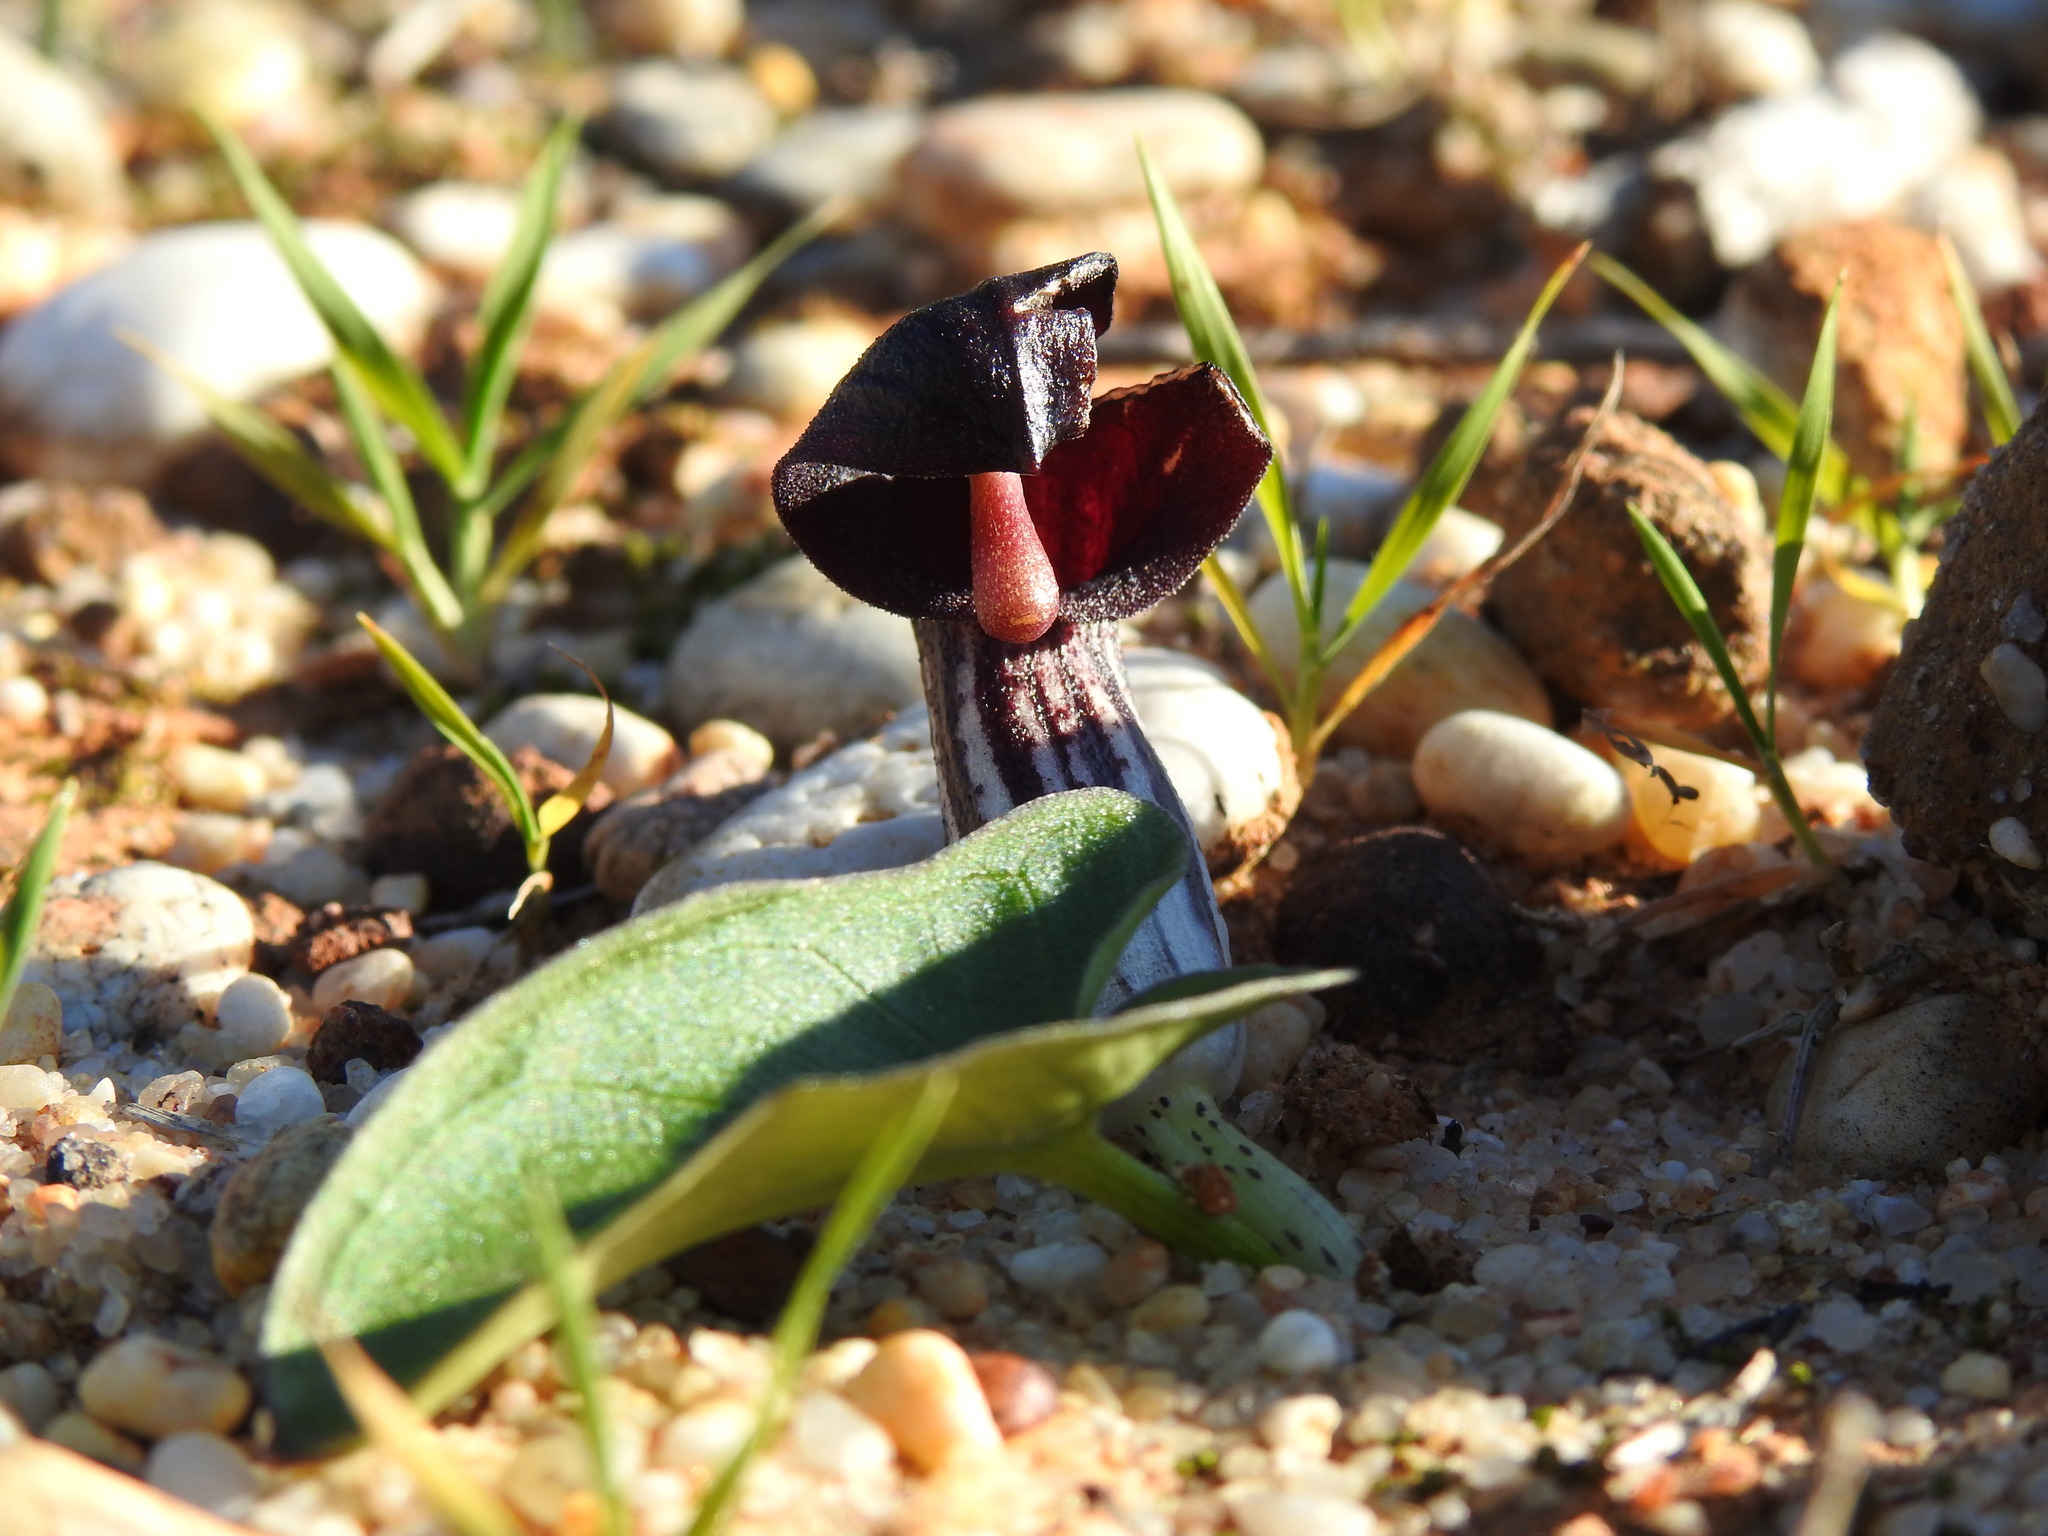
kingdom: Plantae
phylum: Tracheophyta
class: Liliopsida
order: Alismatales
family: Araceae
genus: Arisarum
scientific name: Arisarum simorrhinum
